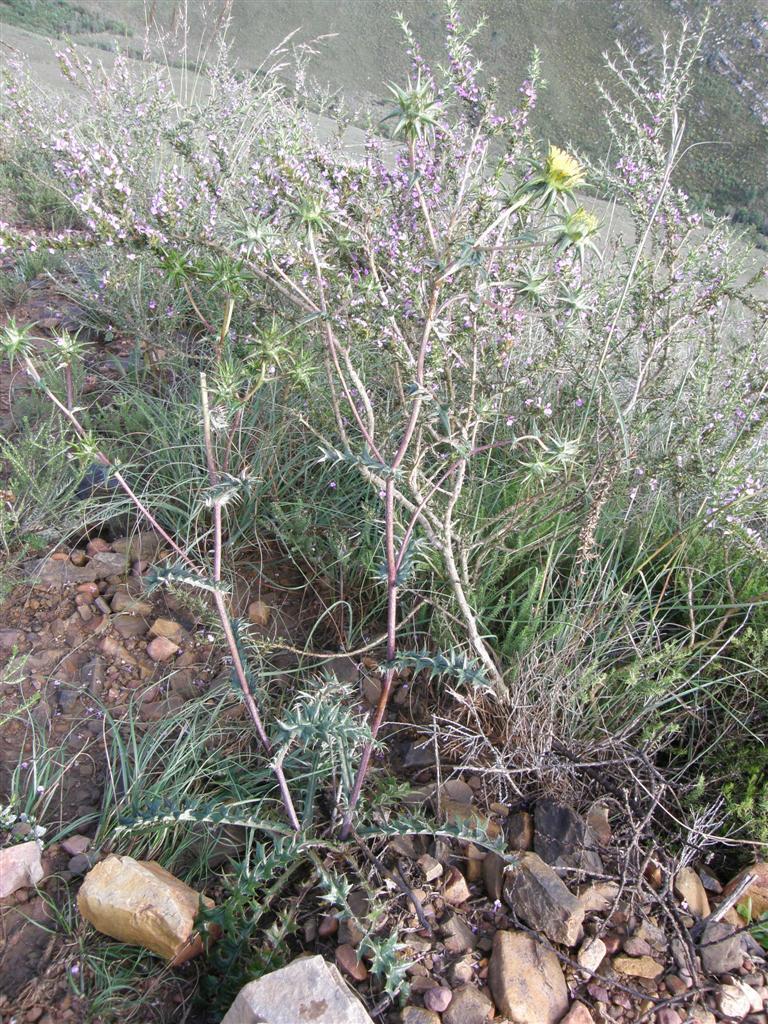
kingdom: Plantae
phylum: Tracheophyta
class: Magnoliopsida
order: Asterales
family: Asteraceae
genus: Berkheya
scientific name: Berkheya heterophylla
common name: Prickly gousblom
